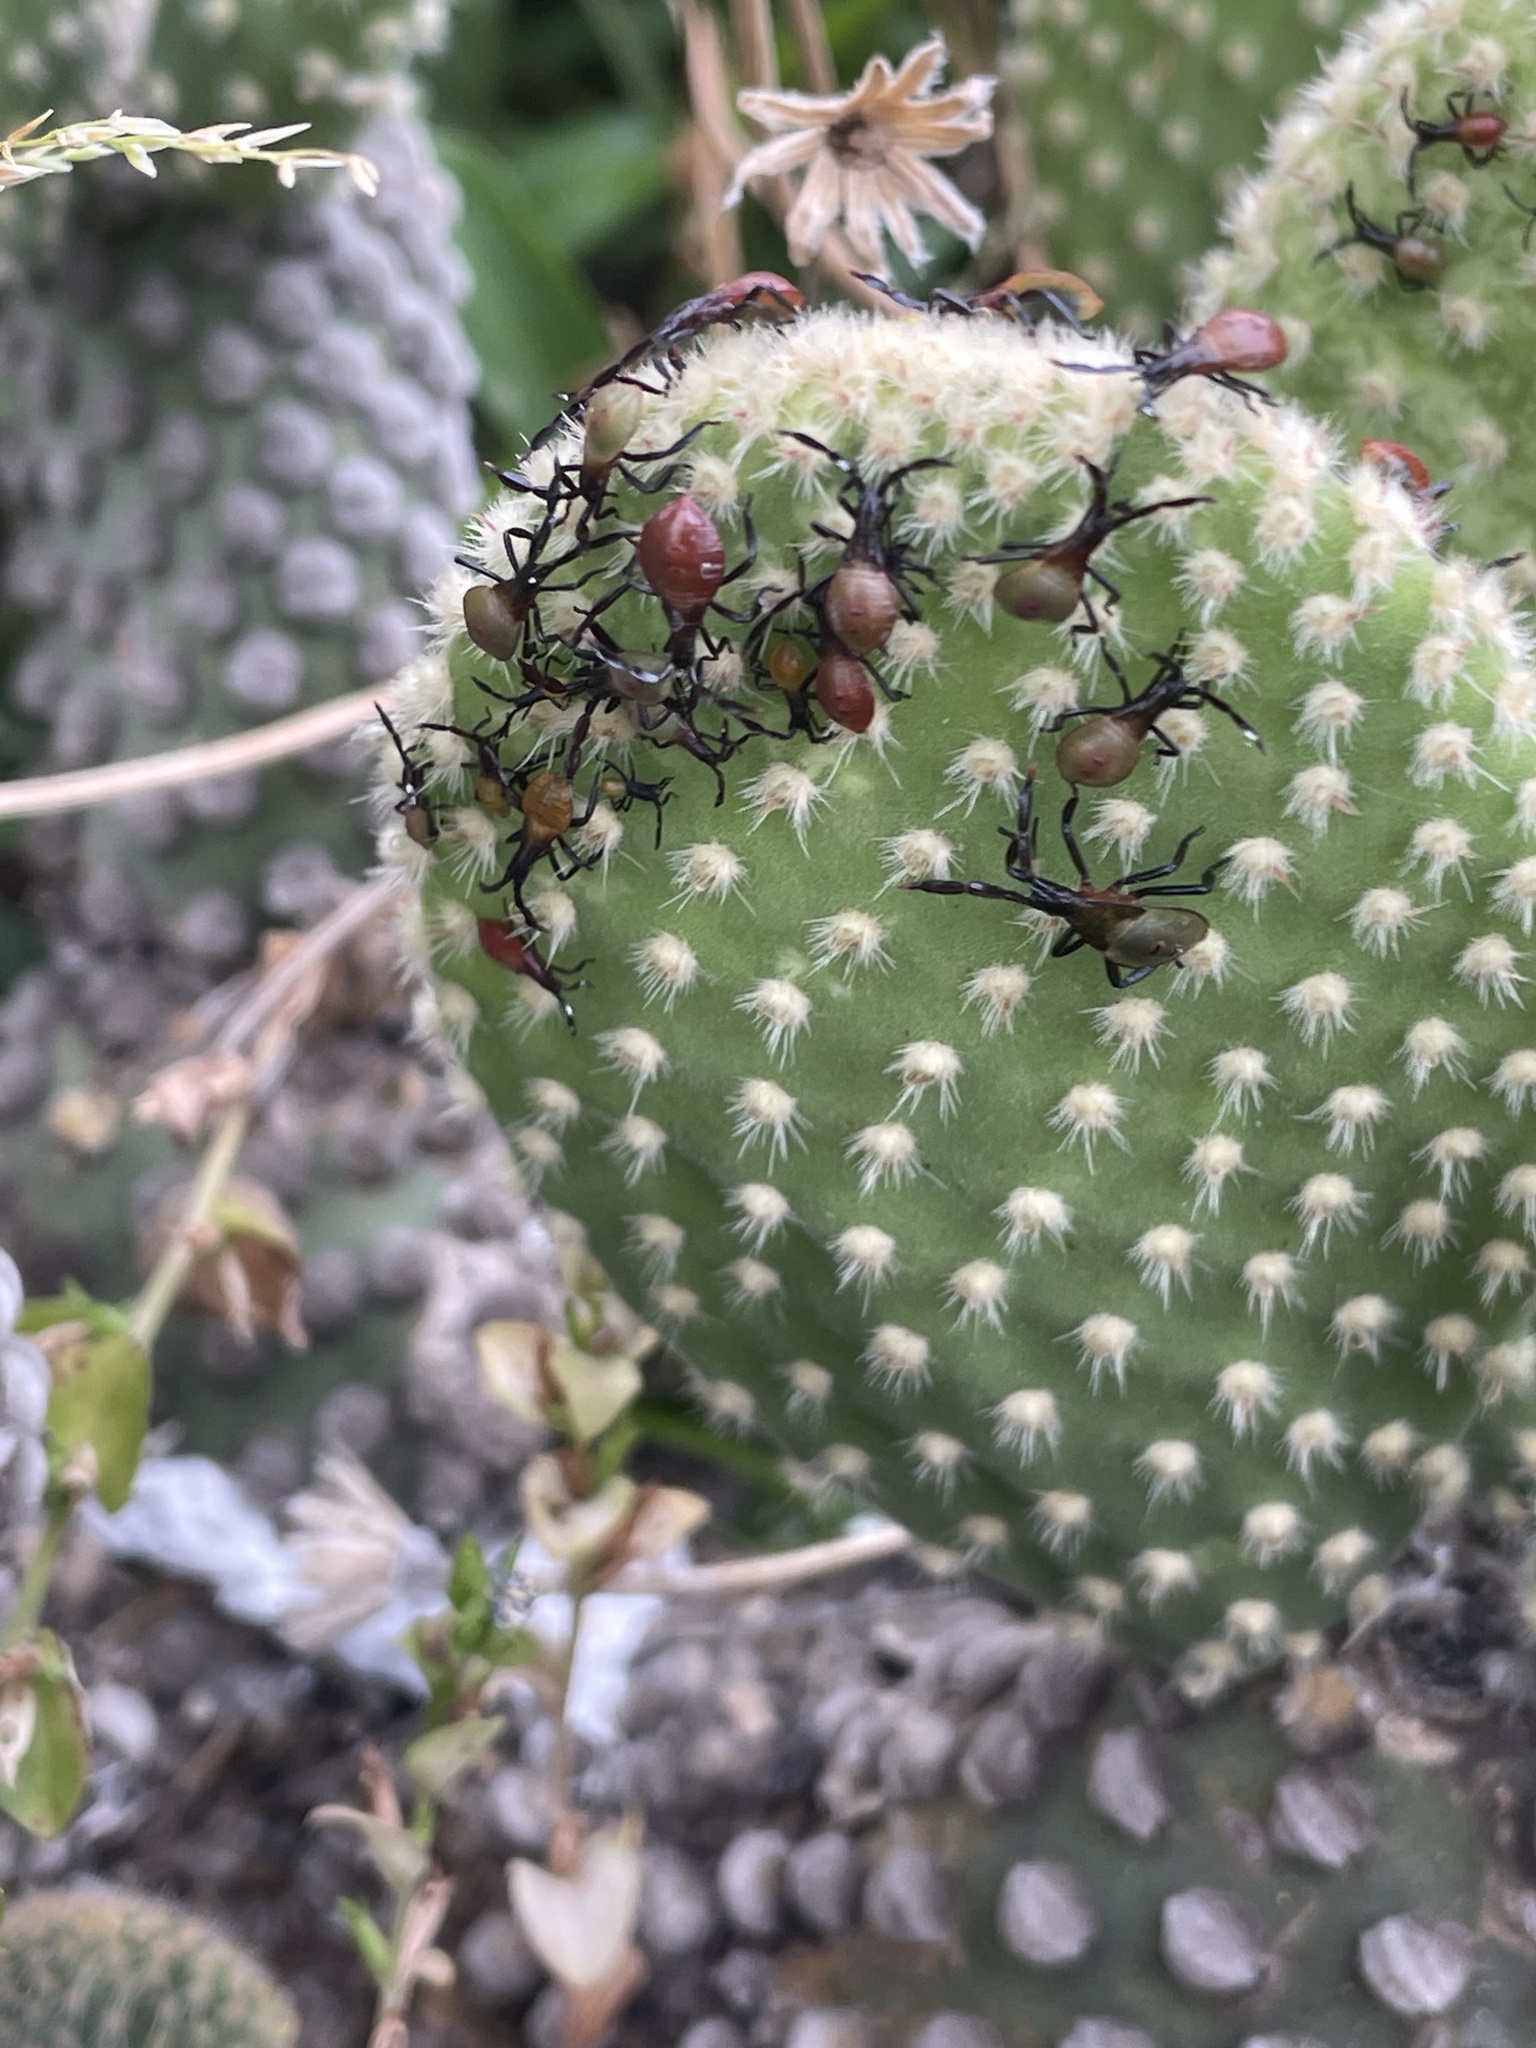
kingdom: Animalia
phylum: Arthropoda
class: Insecta
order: Hemiptera
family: Coreidae
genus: Chelinidea
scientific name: Chelinidea vittiger
